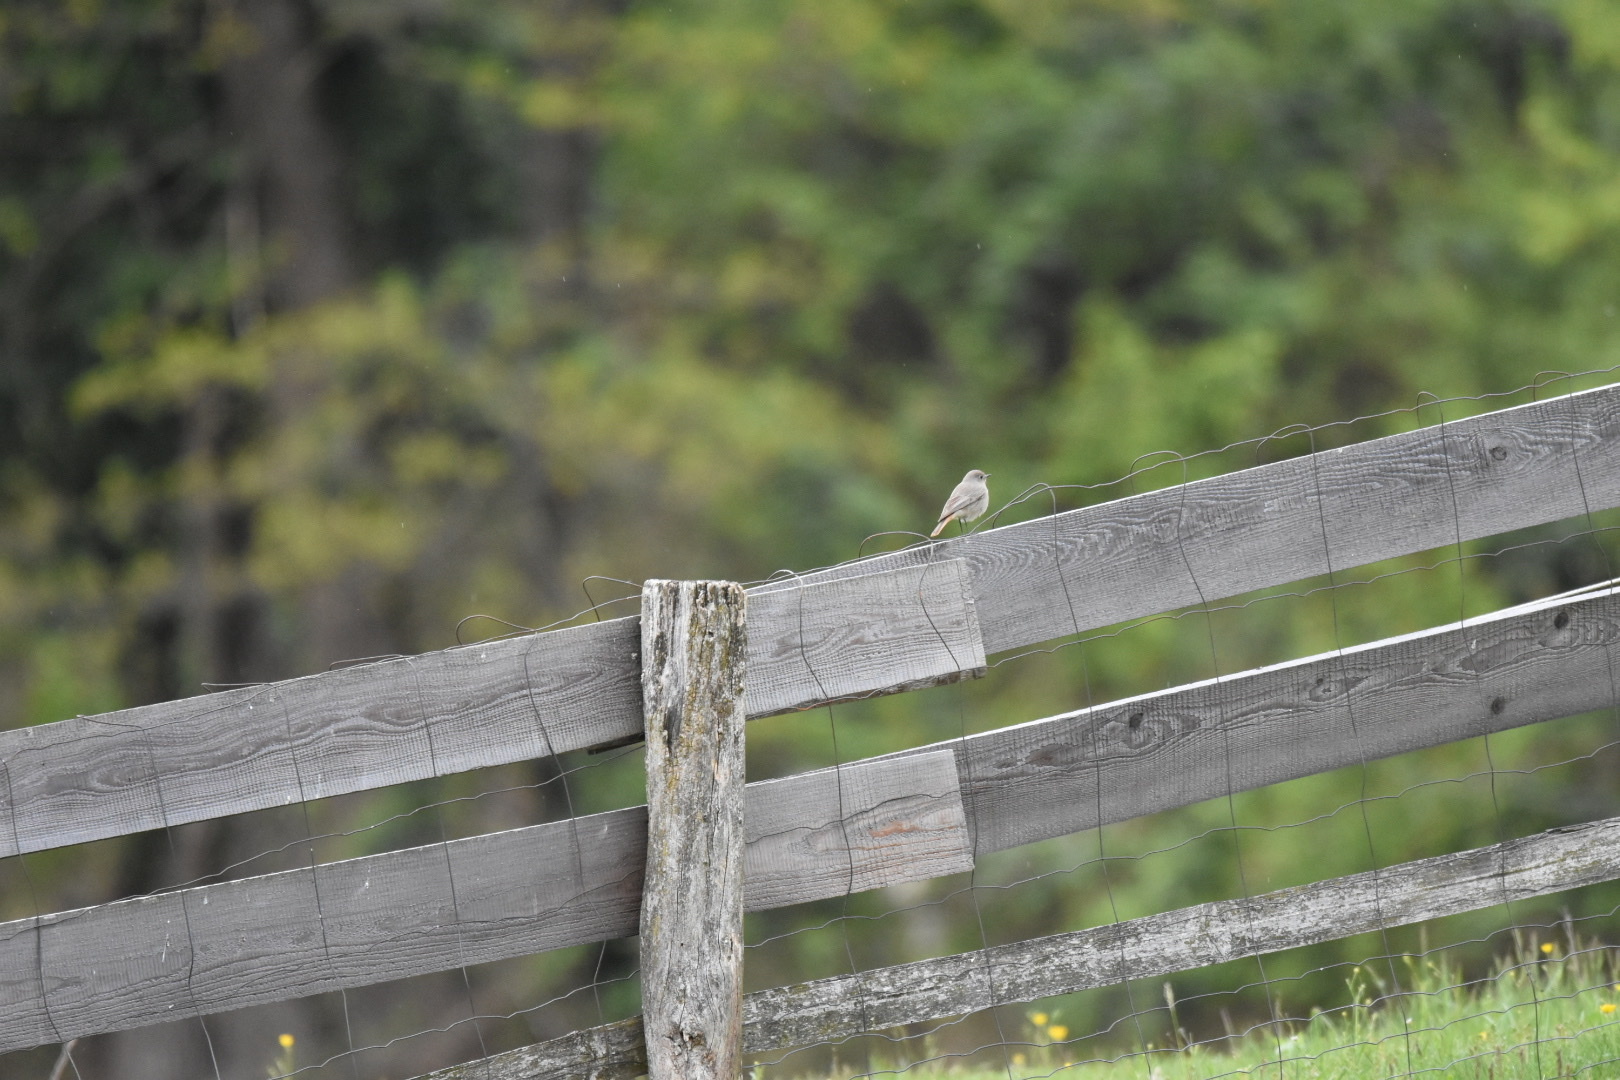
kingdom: Animalia
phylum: Chordata
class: Aves
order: Passeriformes
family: Muscicapidae
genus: Phoenicurus
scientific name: Phoenicurus ochruros
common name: Black redstart
